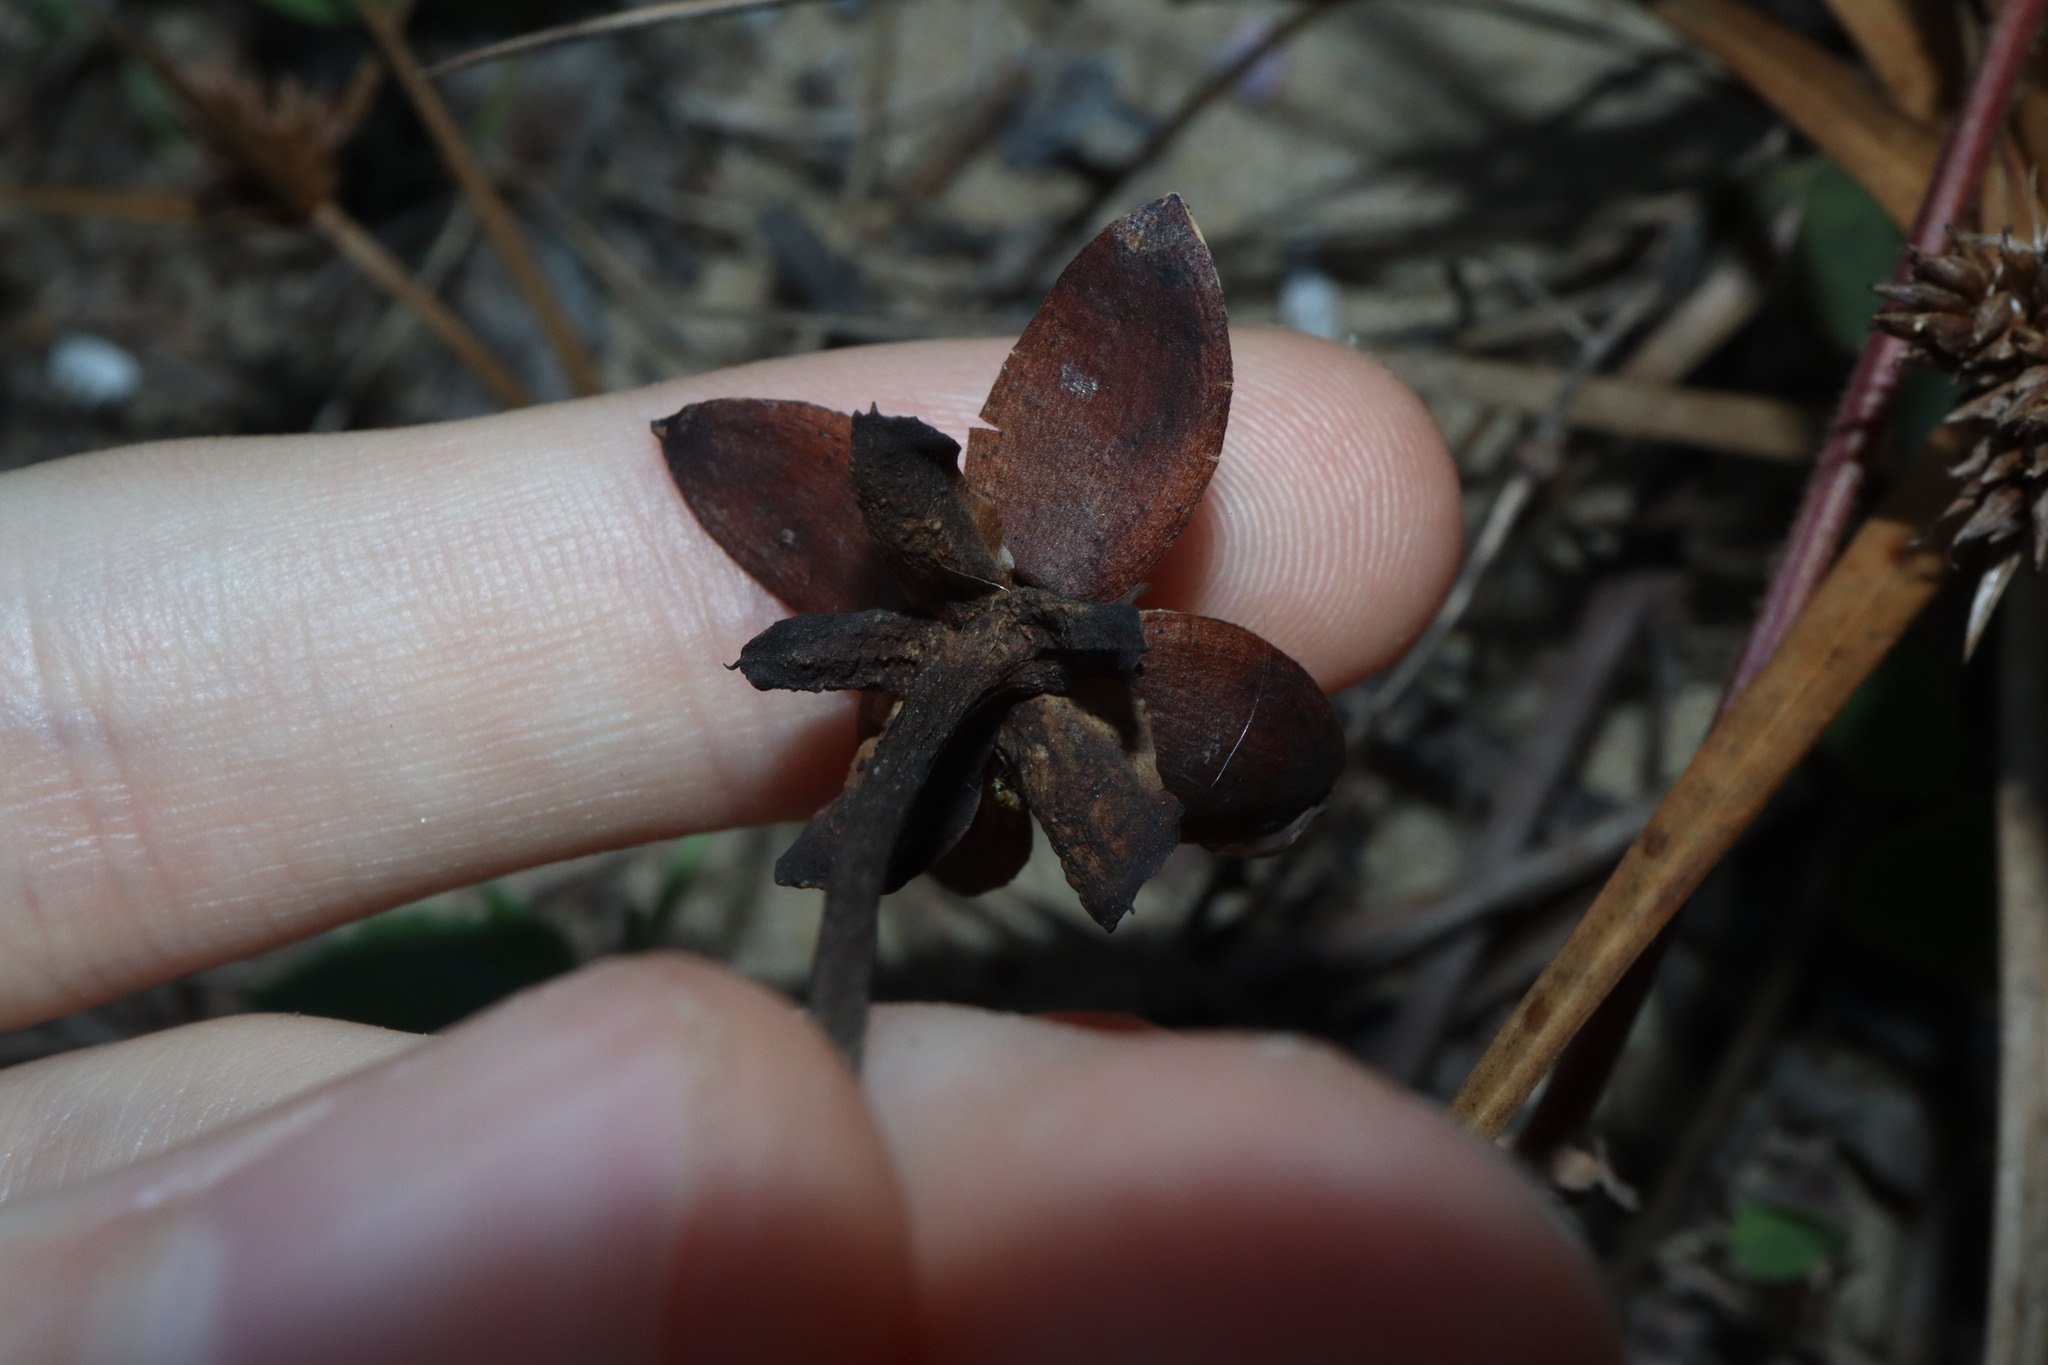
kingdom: Plantae
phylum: Tracheophyta
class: Magnoliopsida
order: Solanales
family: Convolvulaceae
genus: Ipomoea
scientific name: Ipomoea pes-caprae
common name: Beach morning glory
